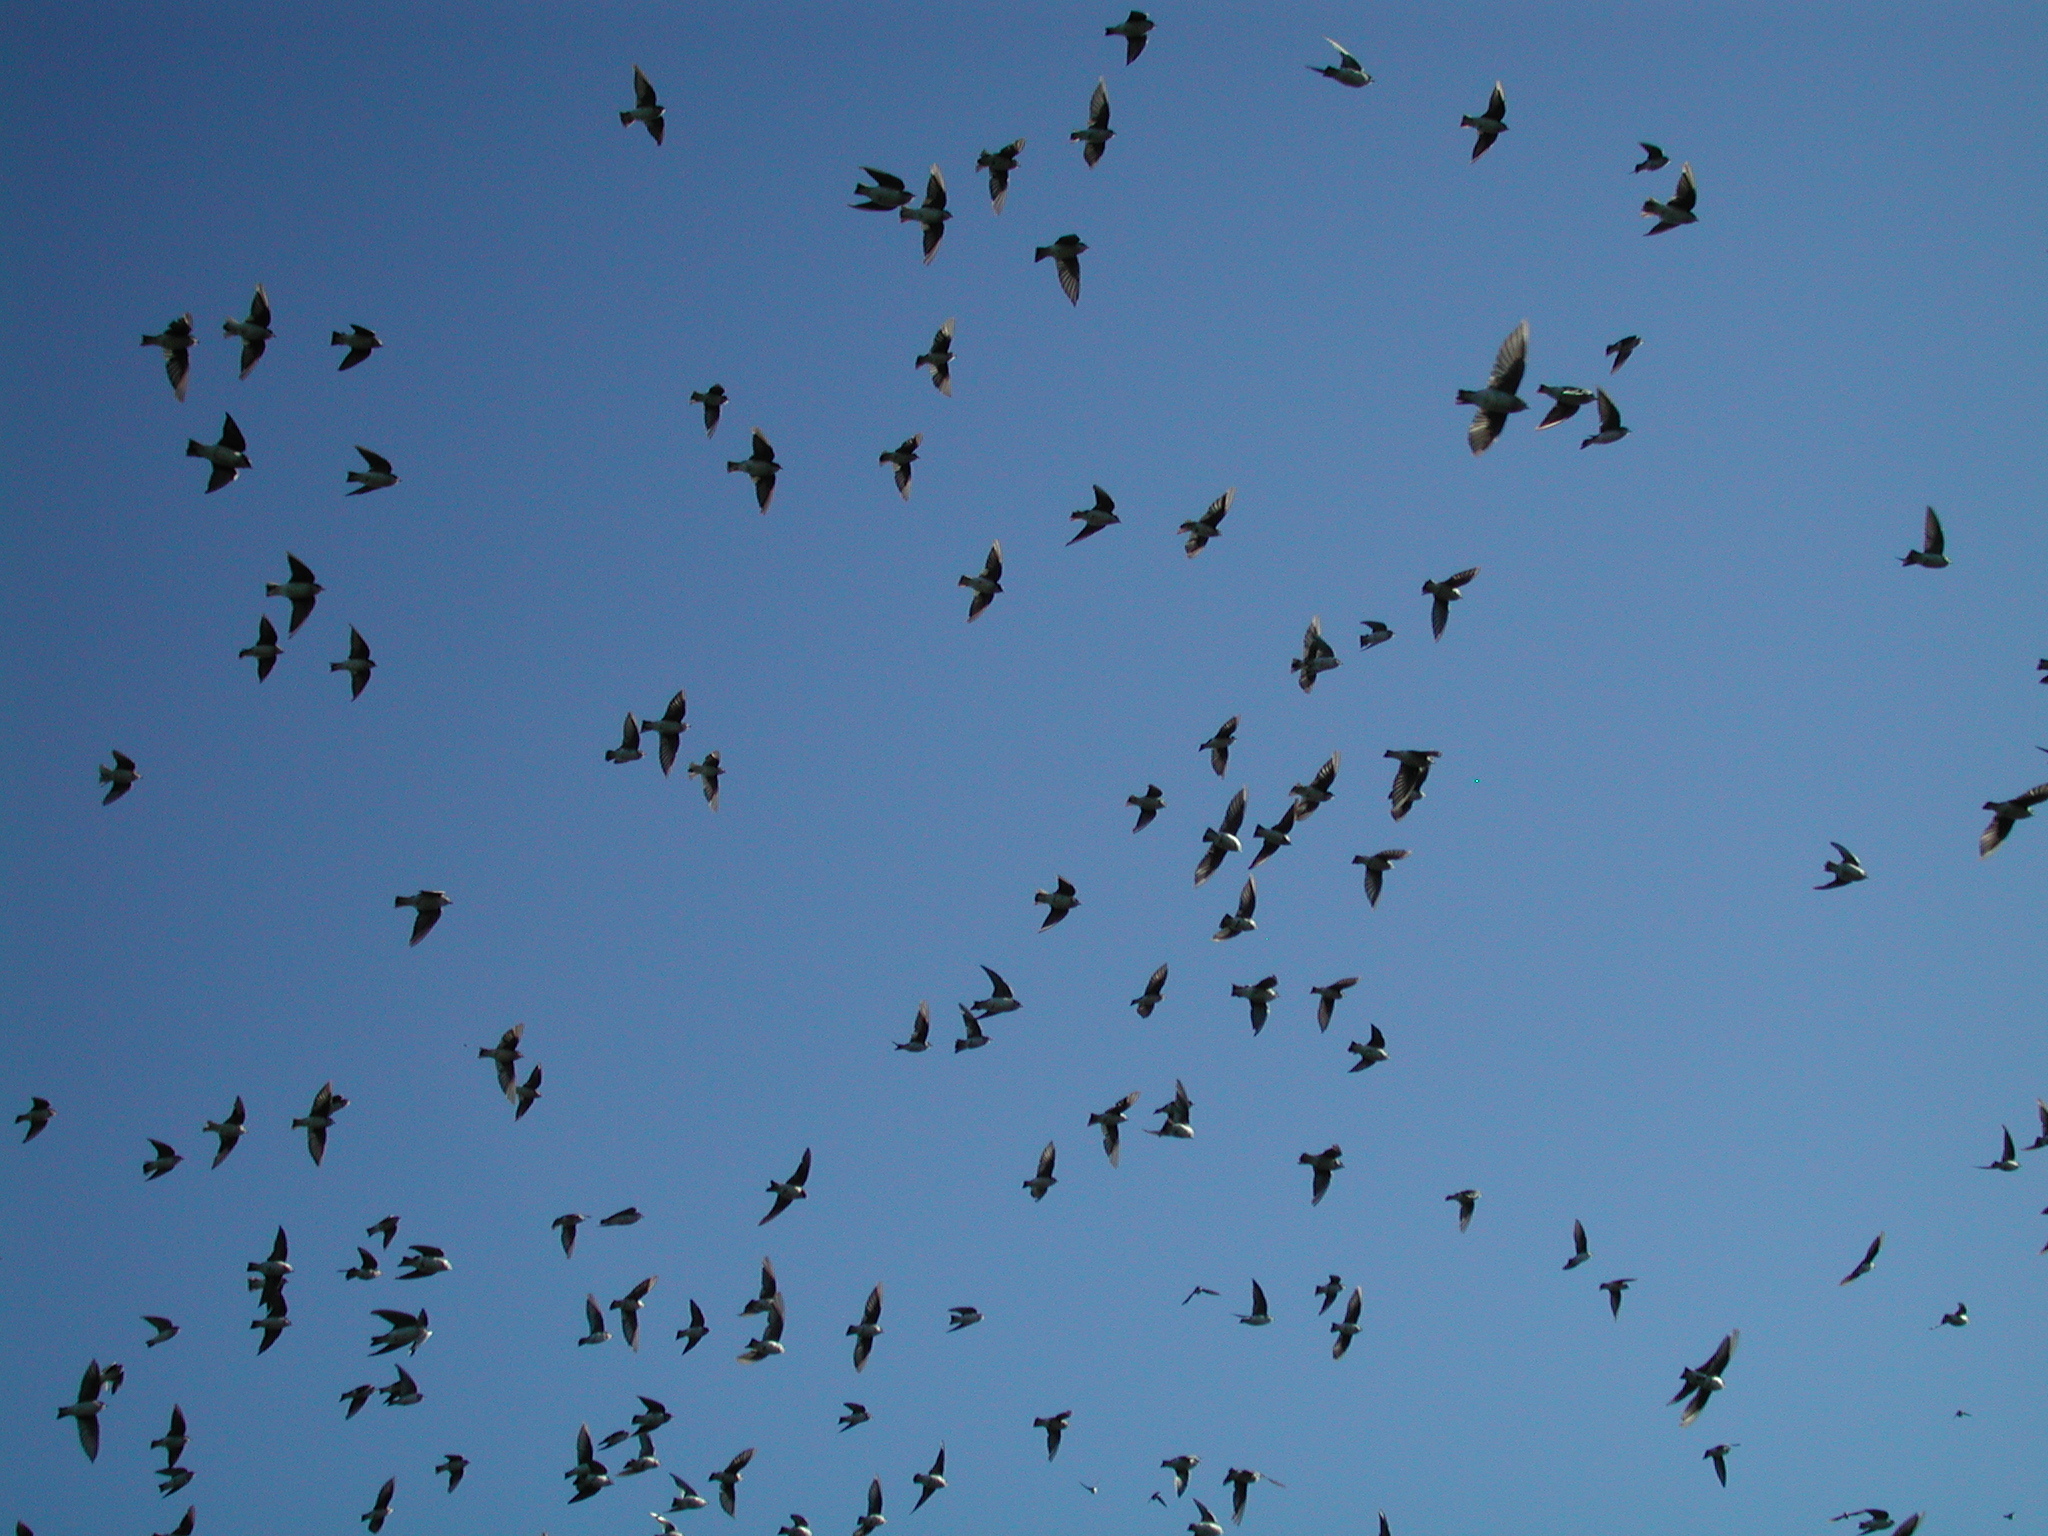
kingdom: Animalia
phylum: Chordata
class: Aves
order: Passeriformes
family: Hirundinidae
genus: Tachycineta
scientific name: Tachycineta bicolor
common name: Tree swallow
